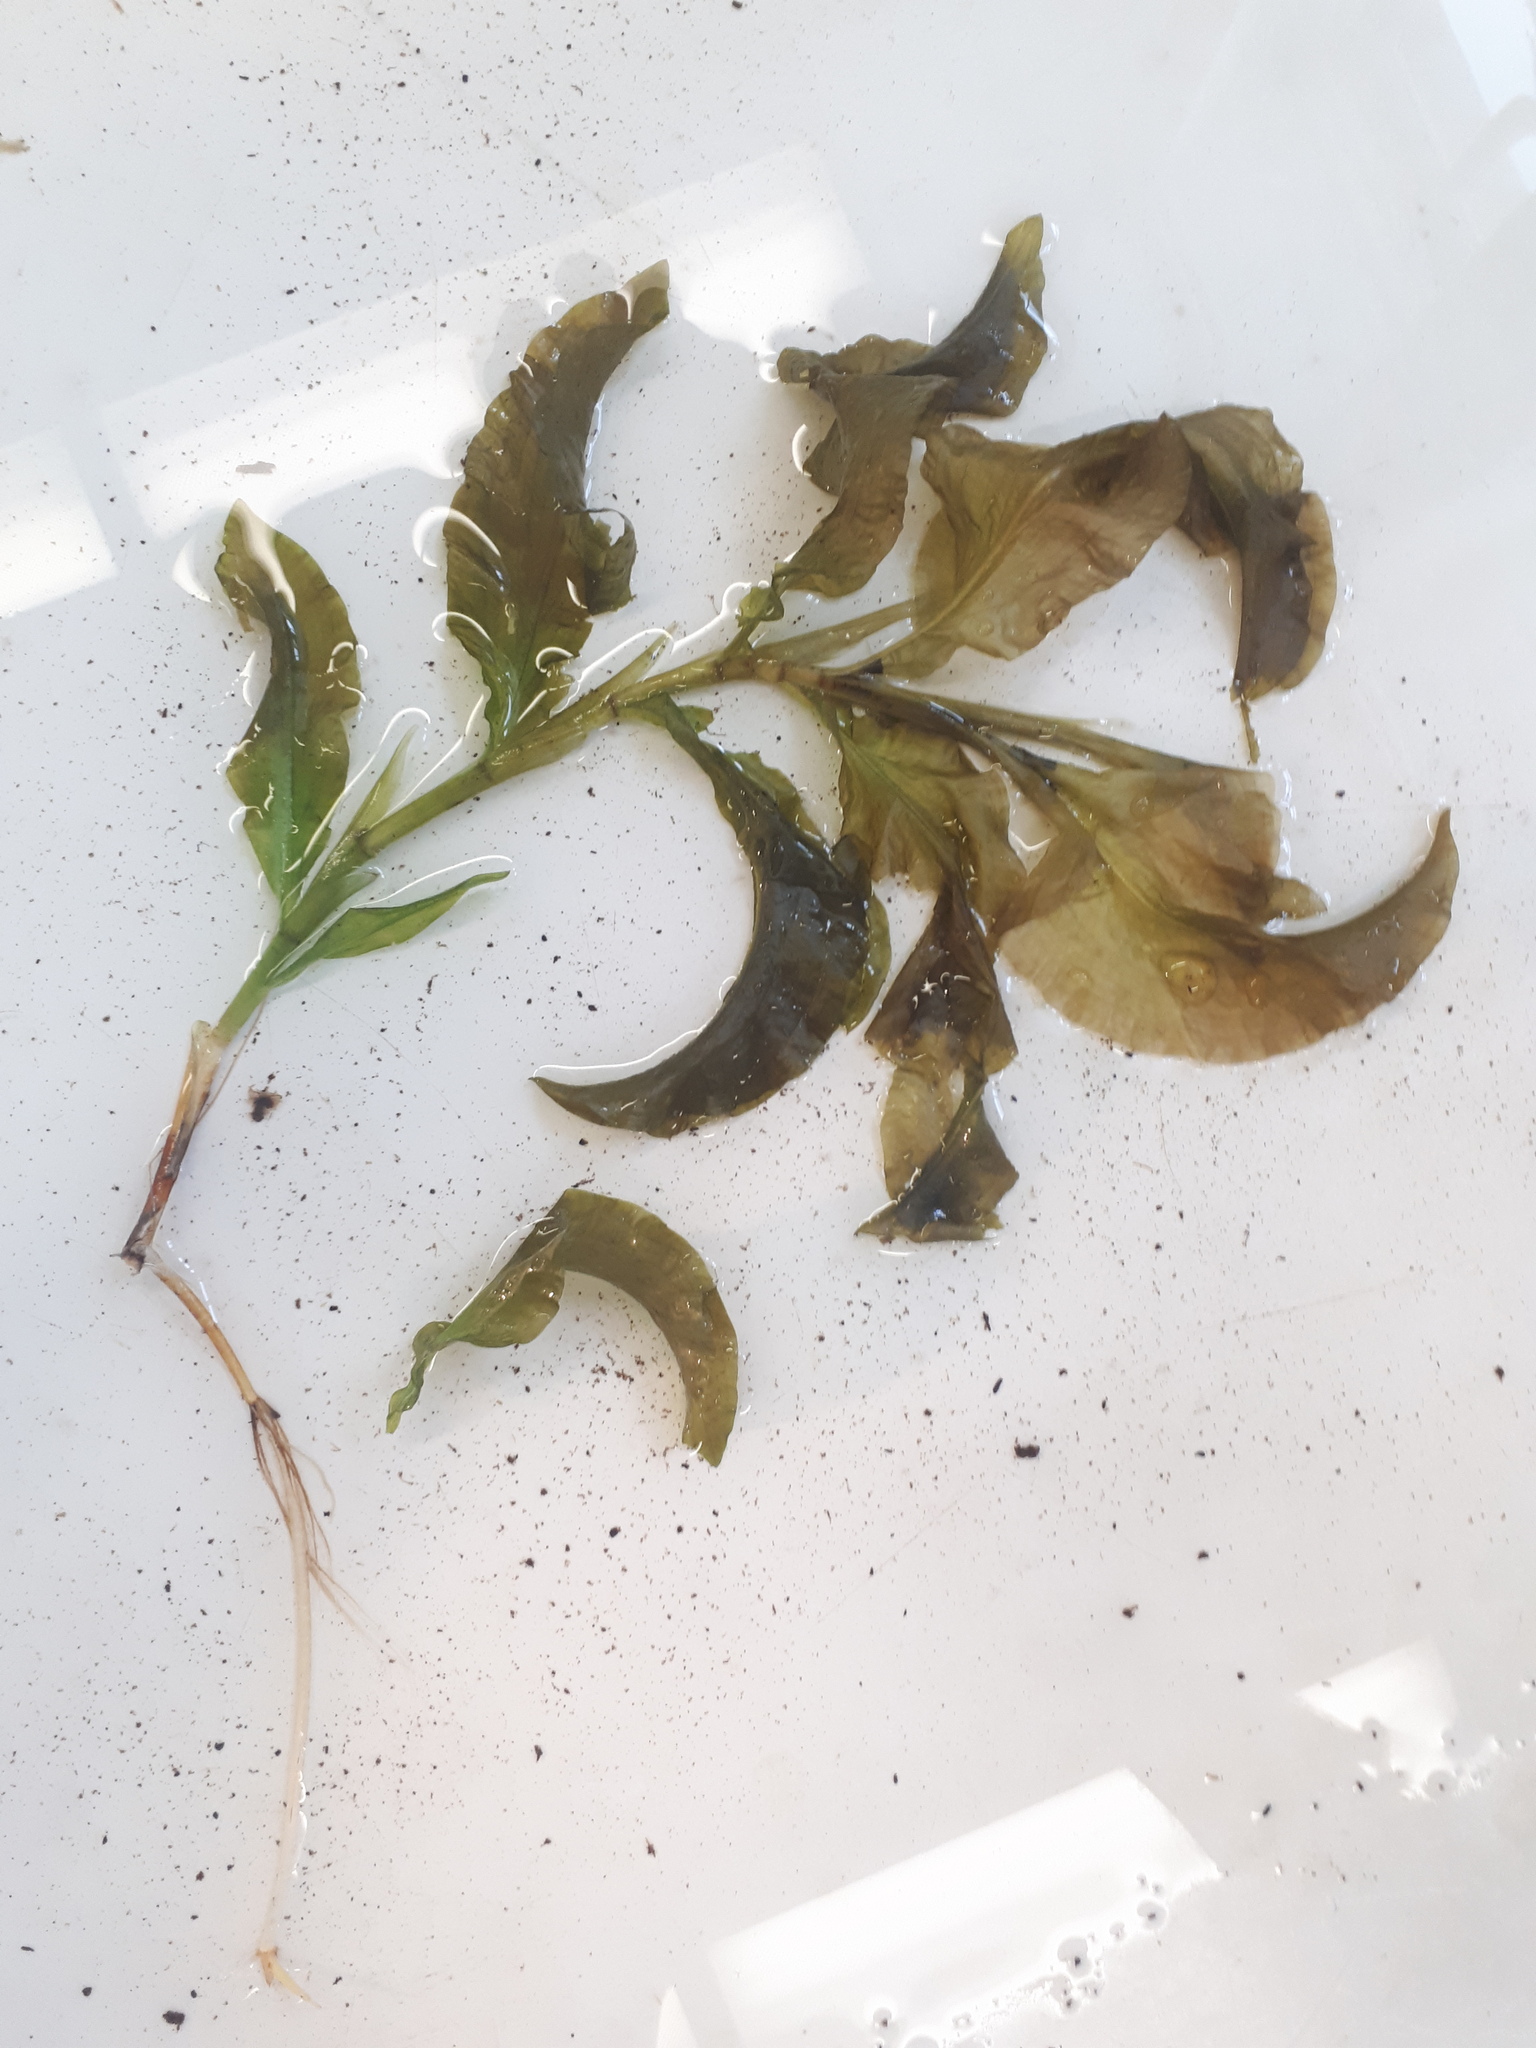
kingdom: Plantae
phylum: Tracheophyta
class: Liliopsida
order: Alismatales
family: Potamogetonaceae
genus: Potamogeton
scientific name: Potamogeton amplifolius
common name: Broad-leaved pondweed
